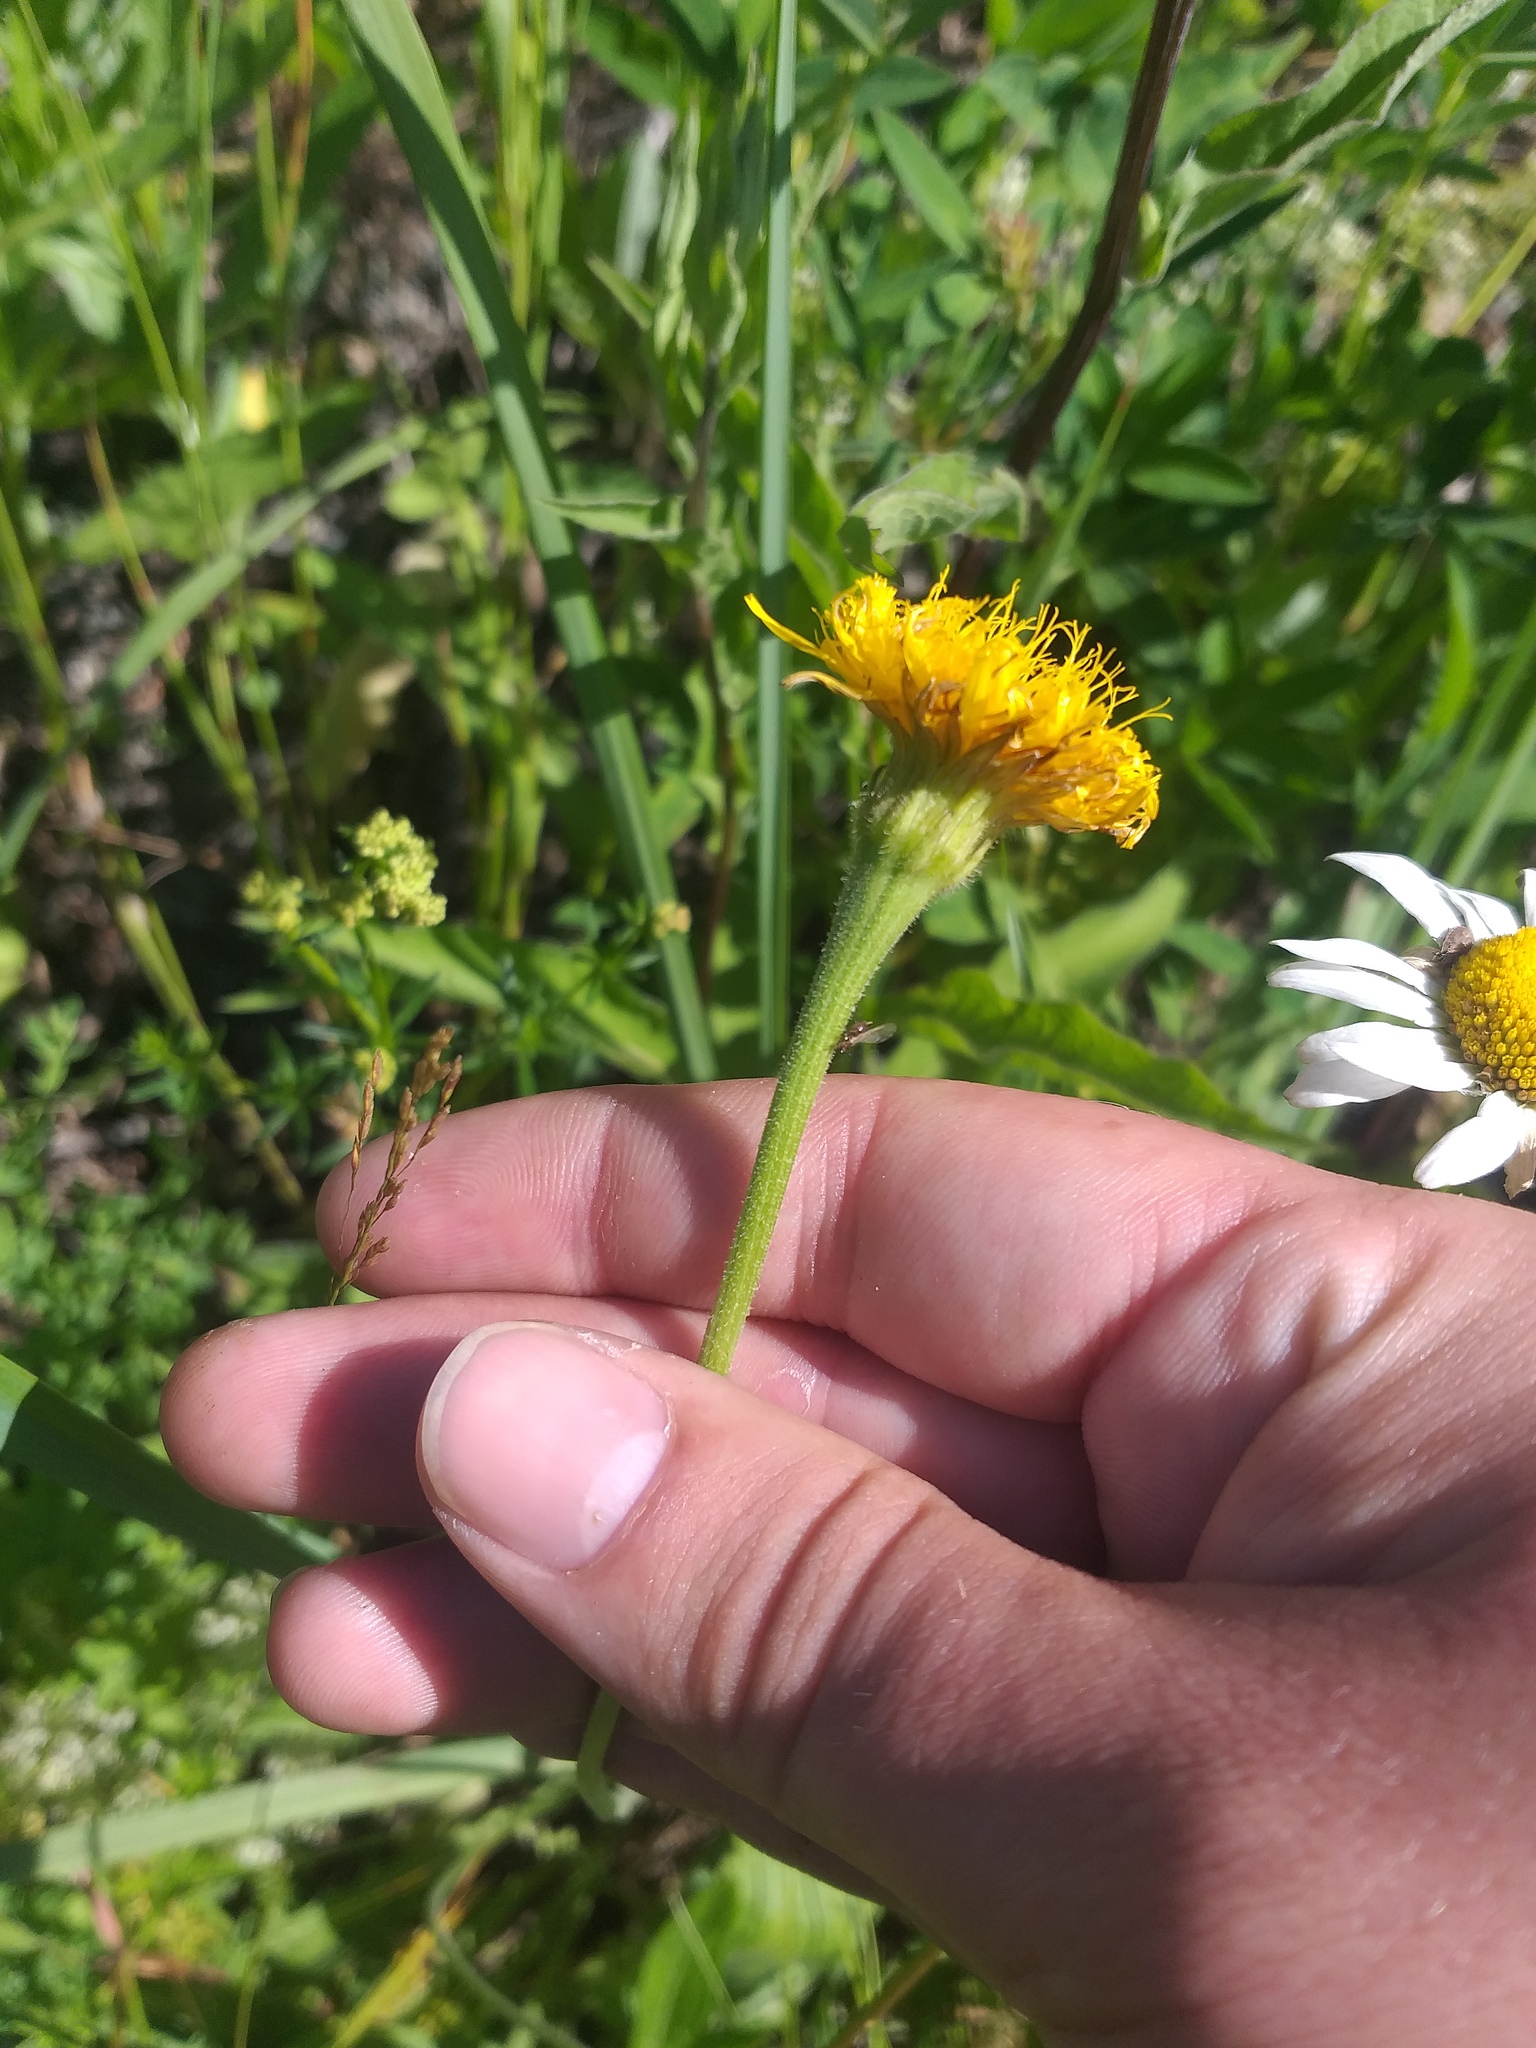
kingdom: Plantae
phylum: Tracheophyta
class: Magnoliopsida
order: Asterales
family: Asteraceae
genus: Leontodon
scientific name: Leontodon hispidus
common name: Rough hawkbit
